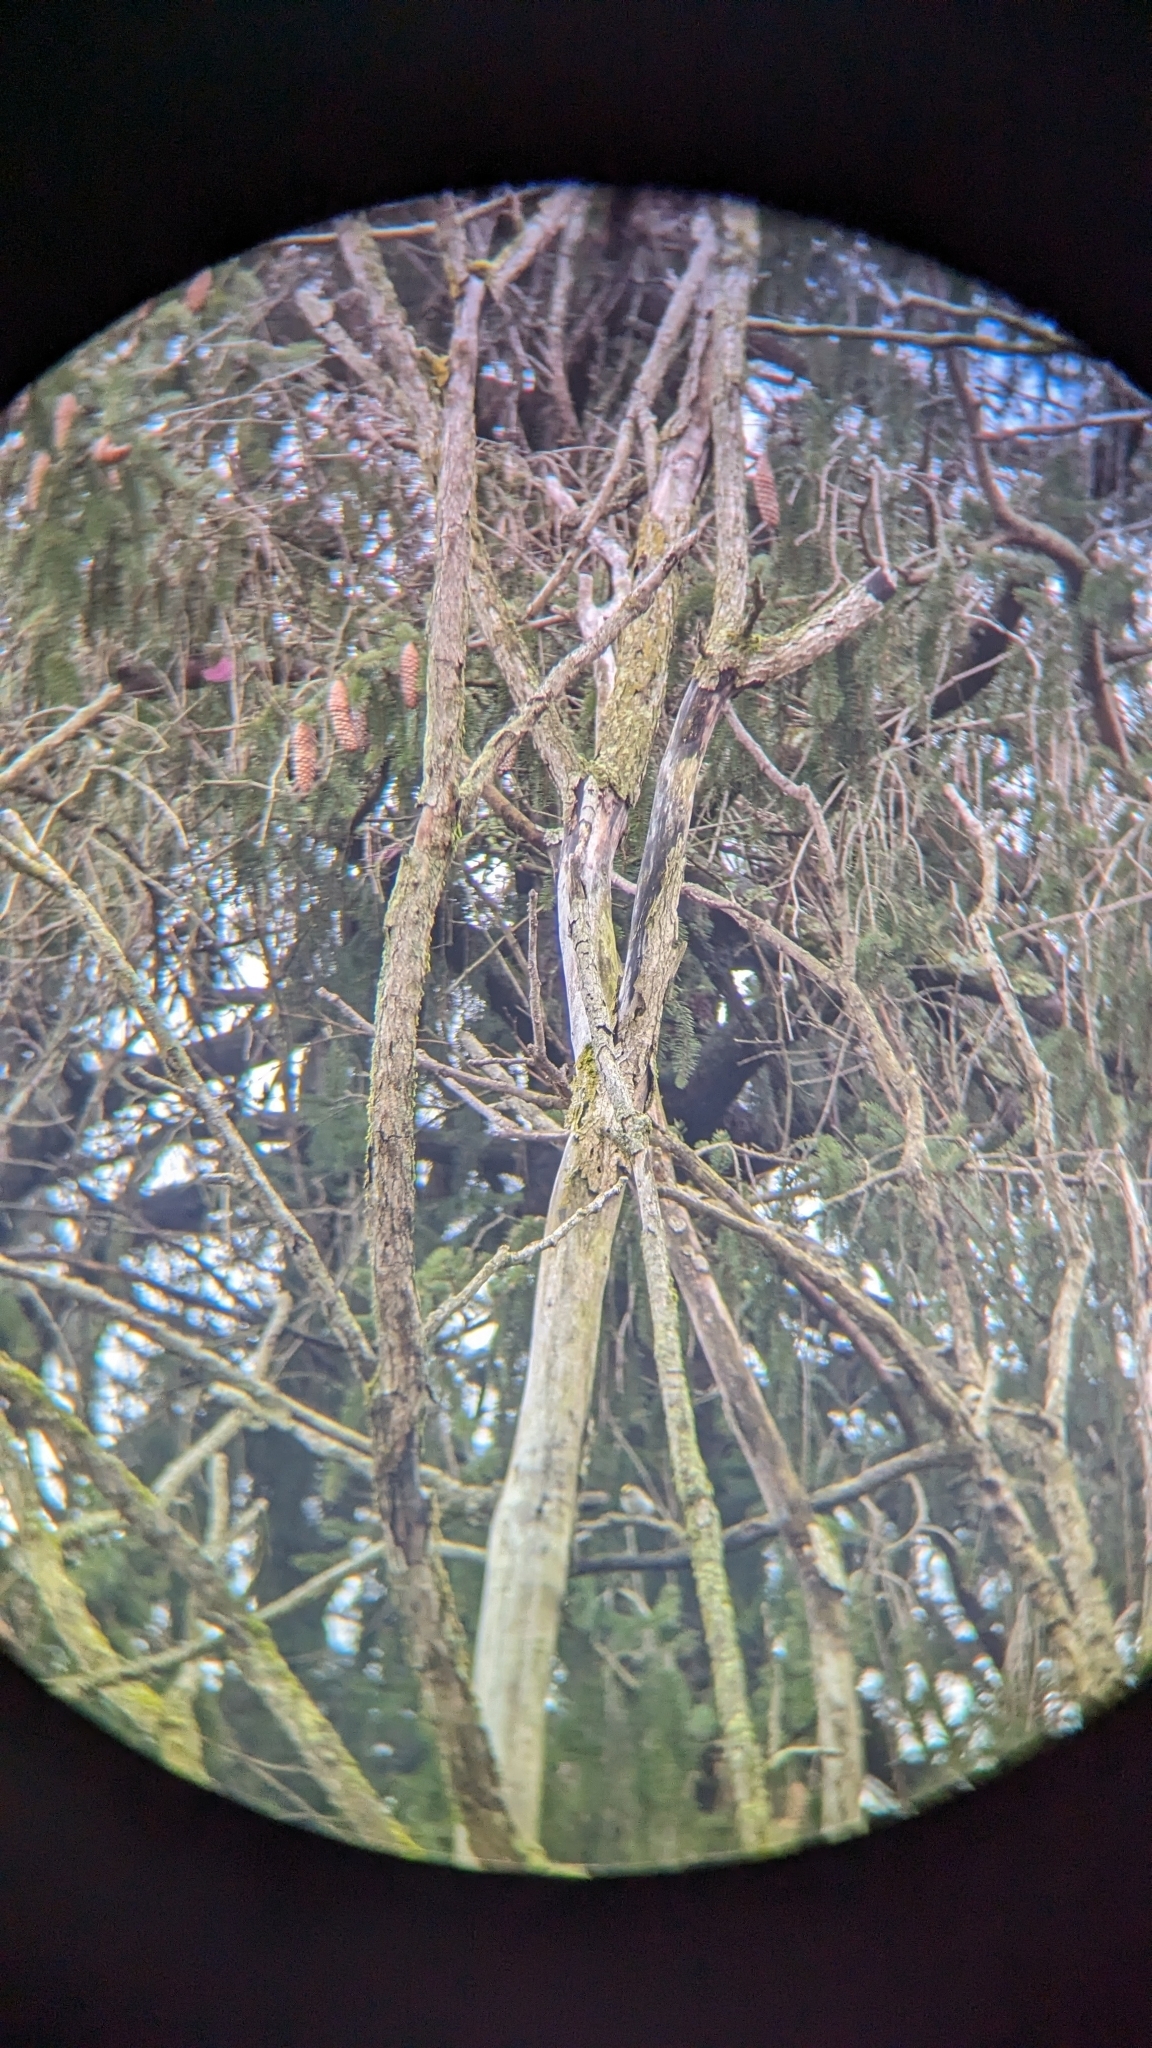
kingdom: Animalia
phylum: Chordata
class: Aves
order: Passeriformes
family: Regulidae
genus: Regulus
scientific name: Regulus satrapa
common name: Golden-crowned kinglet
